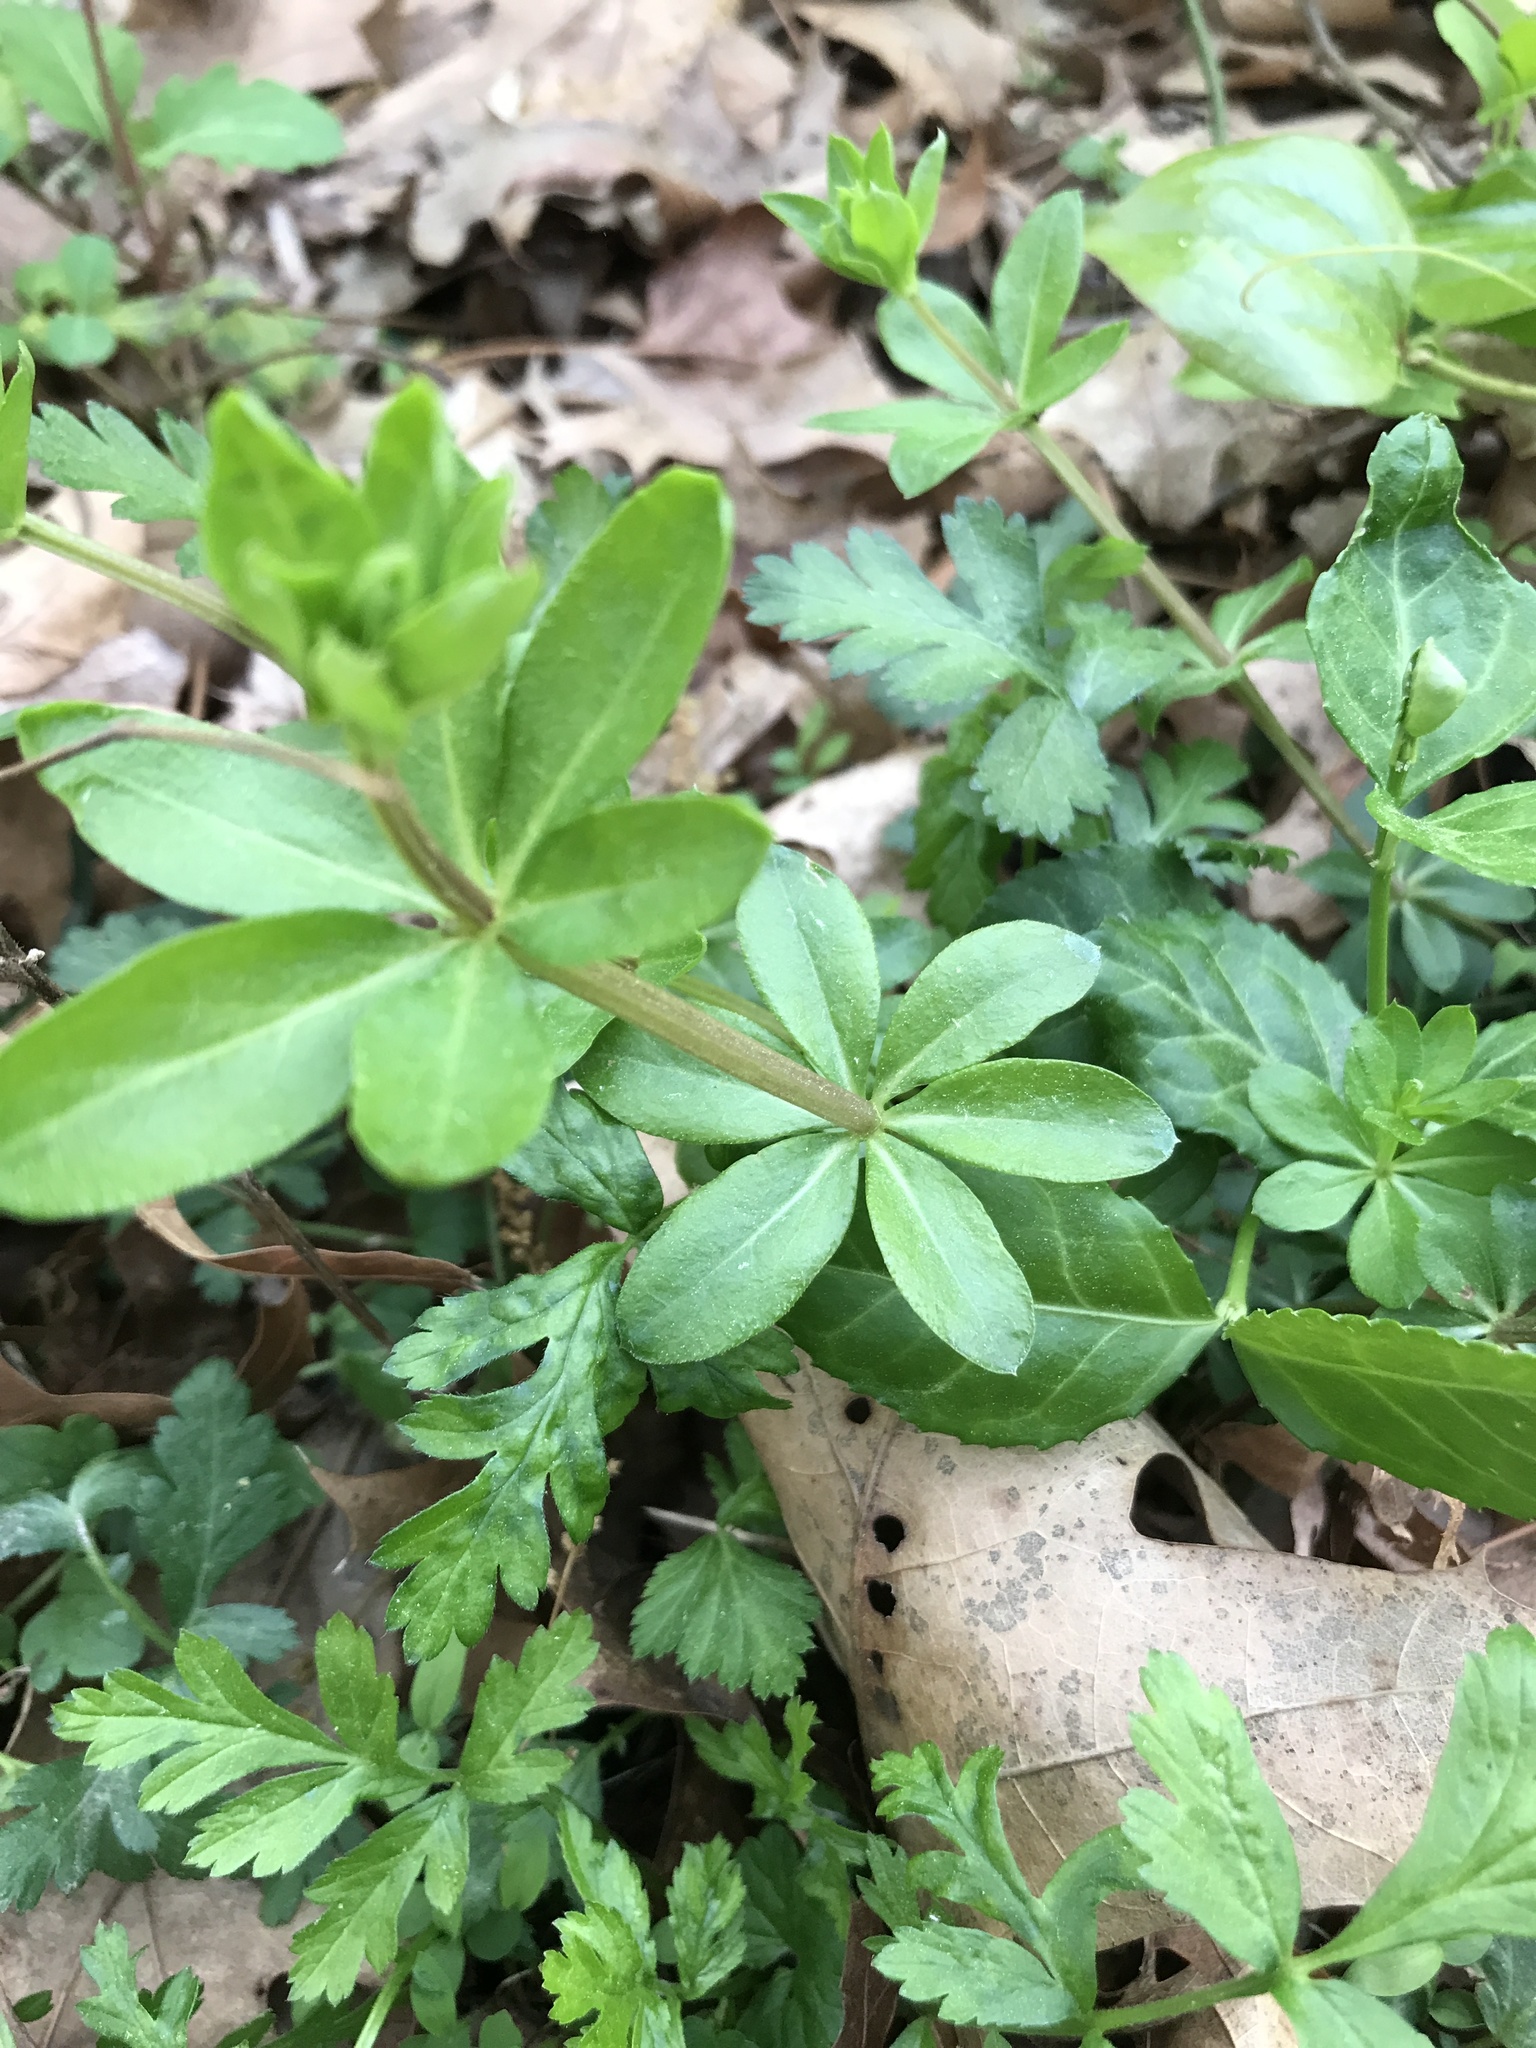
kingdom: Plantae
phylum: Tracheophyta
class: Magnoliopsida
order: Gentianales
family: Rubiaceae
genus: Galium
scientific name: Galium triflorum
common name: Fragrant bedstraw
